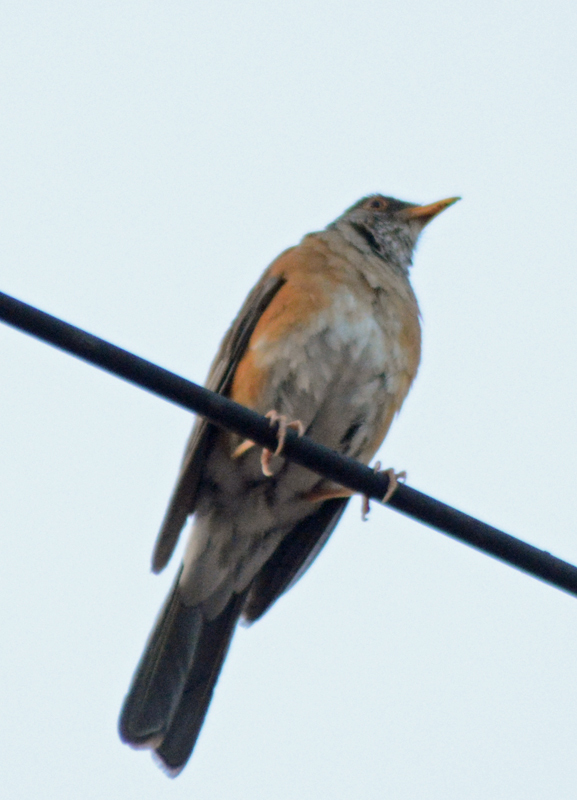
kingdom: Animalia
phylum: Chordata
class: Aves
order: Passeriformes
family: Turdidae
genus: Turdus
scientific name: Turdus rufopalliatus
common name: Rufous-backed robin
